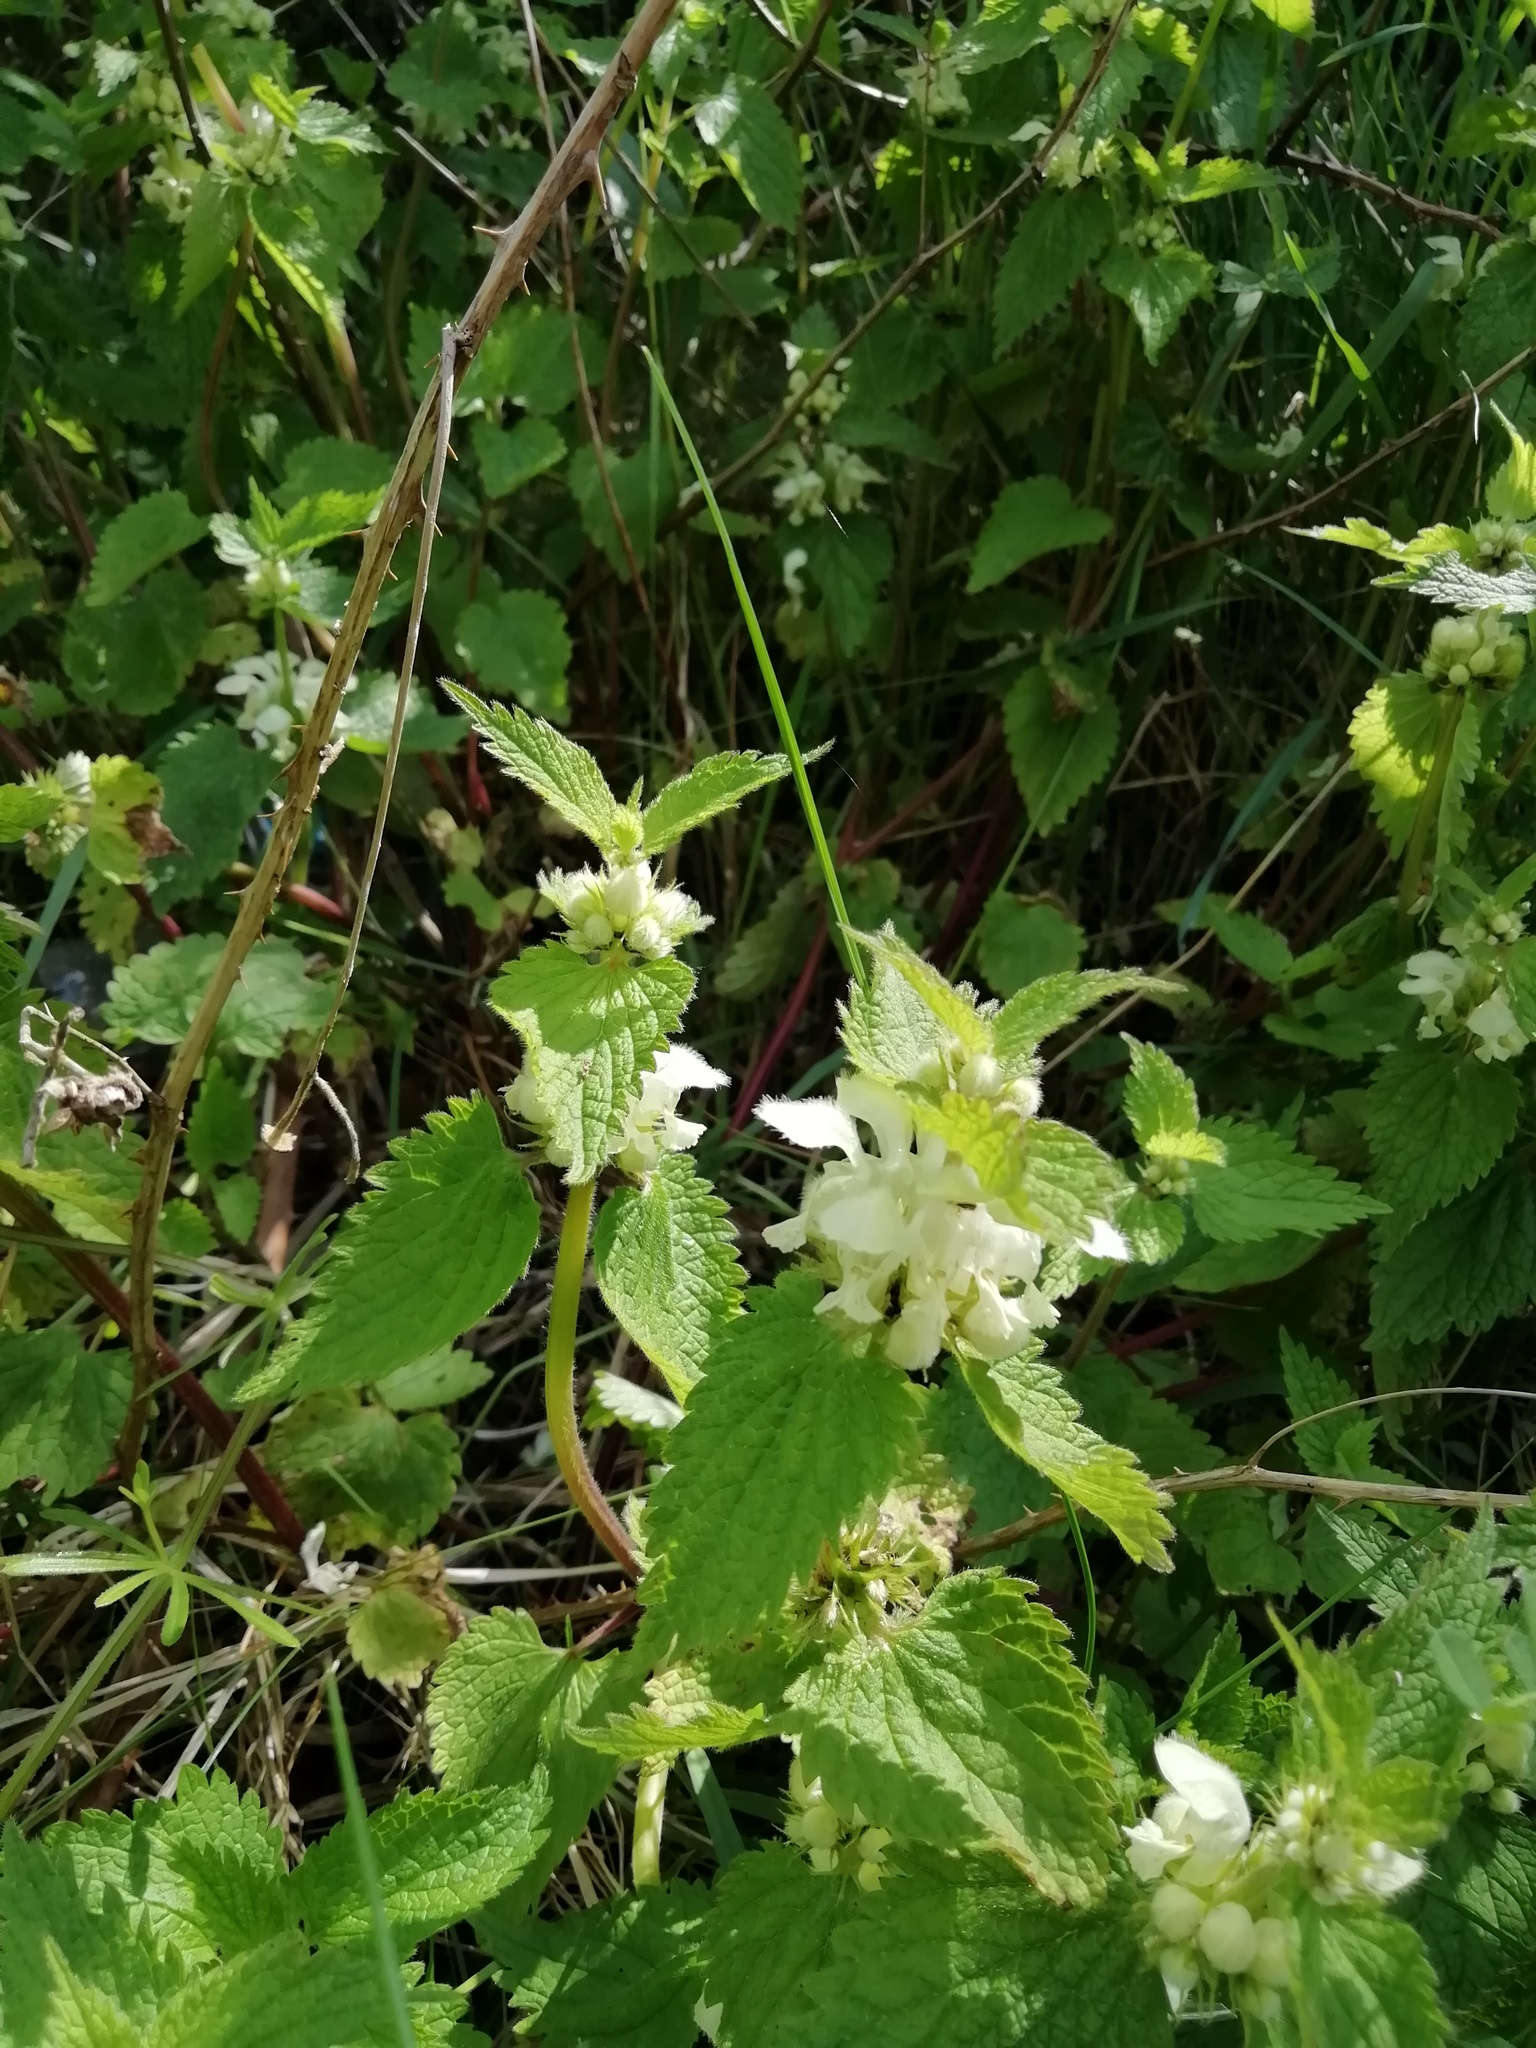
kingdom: Plantae
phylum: Tracheophyta
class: Magnoliopsida
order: Lamiales
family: Lamiaceae
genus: Lamium
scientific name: Lamium album
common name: White dead-nettle
